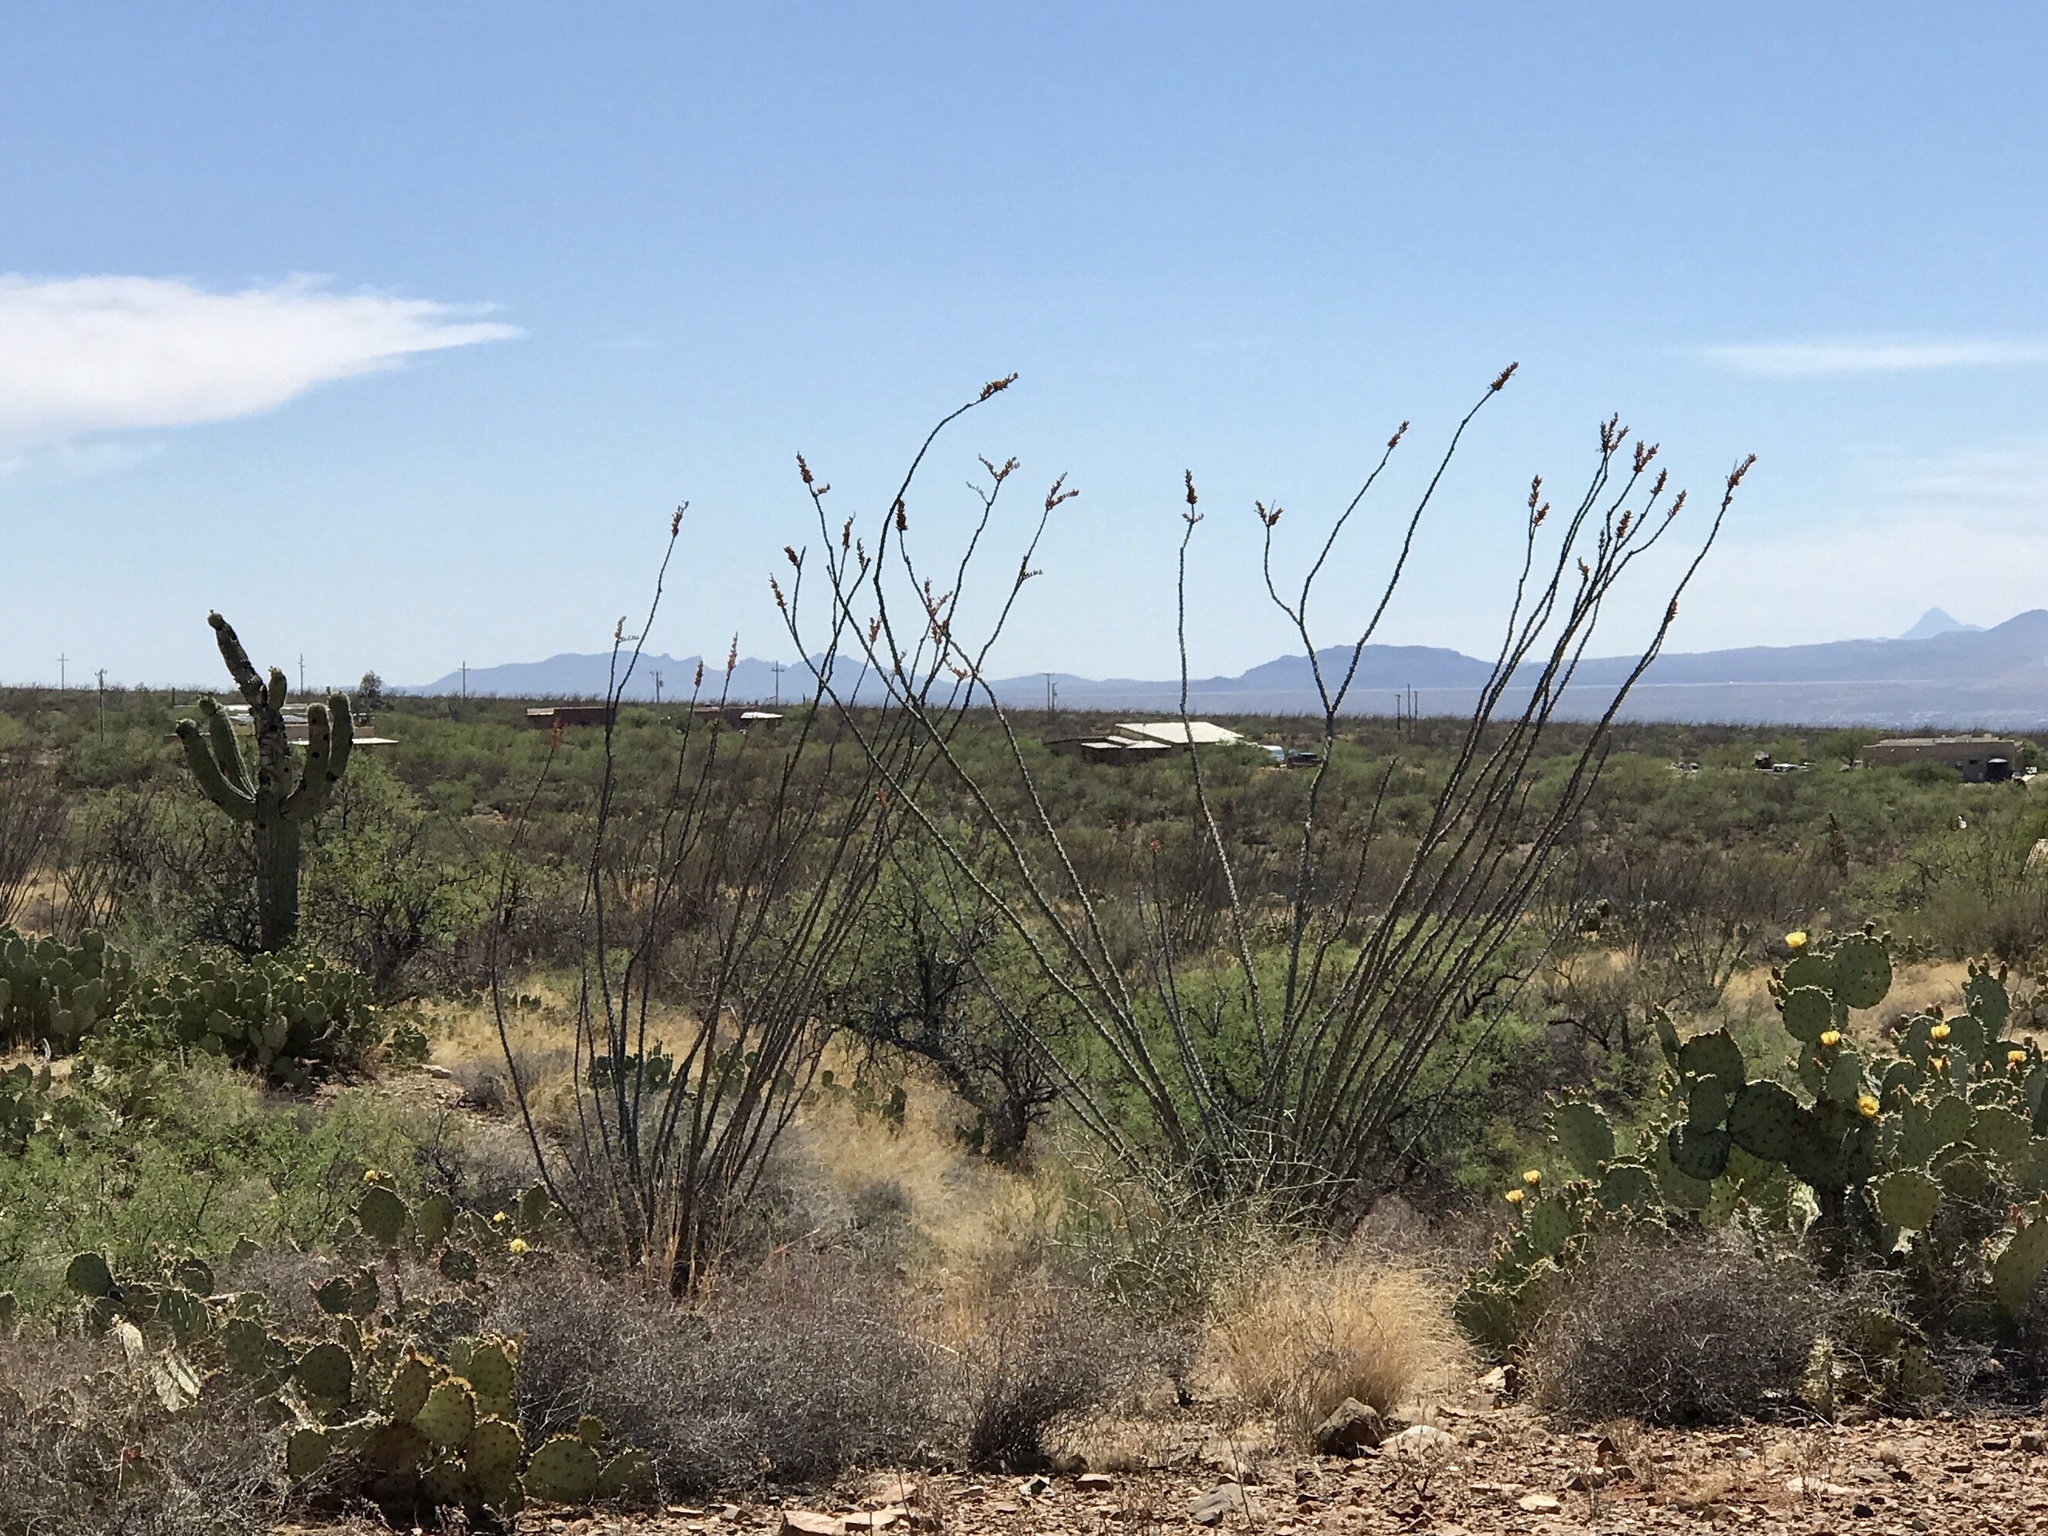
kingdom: Plantae
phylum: Tracheophyta
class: Magnoliopsida
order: Ericales
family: Fouquieriaceae
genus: Fouquieria
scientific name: Fouquieria splendens
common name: Vine-cactus
